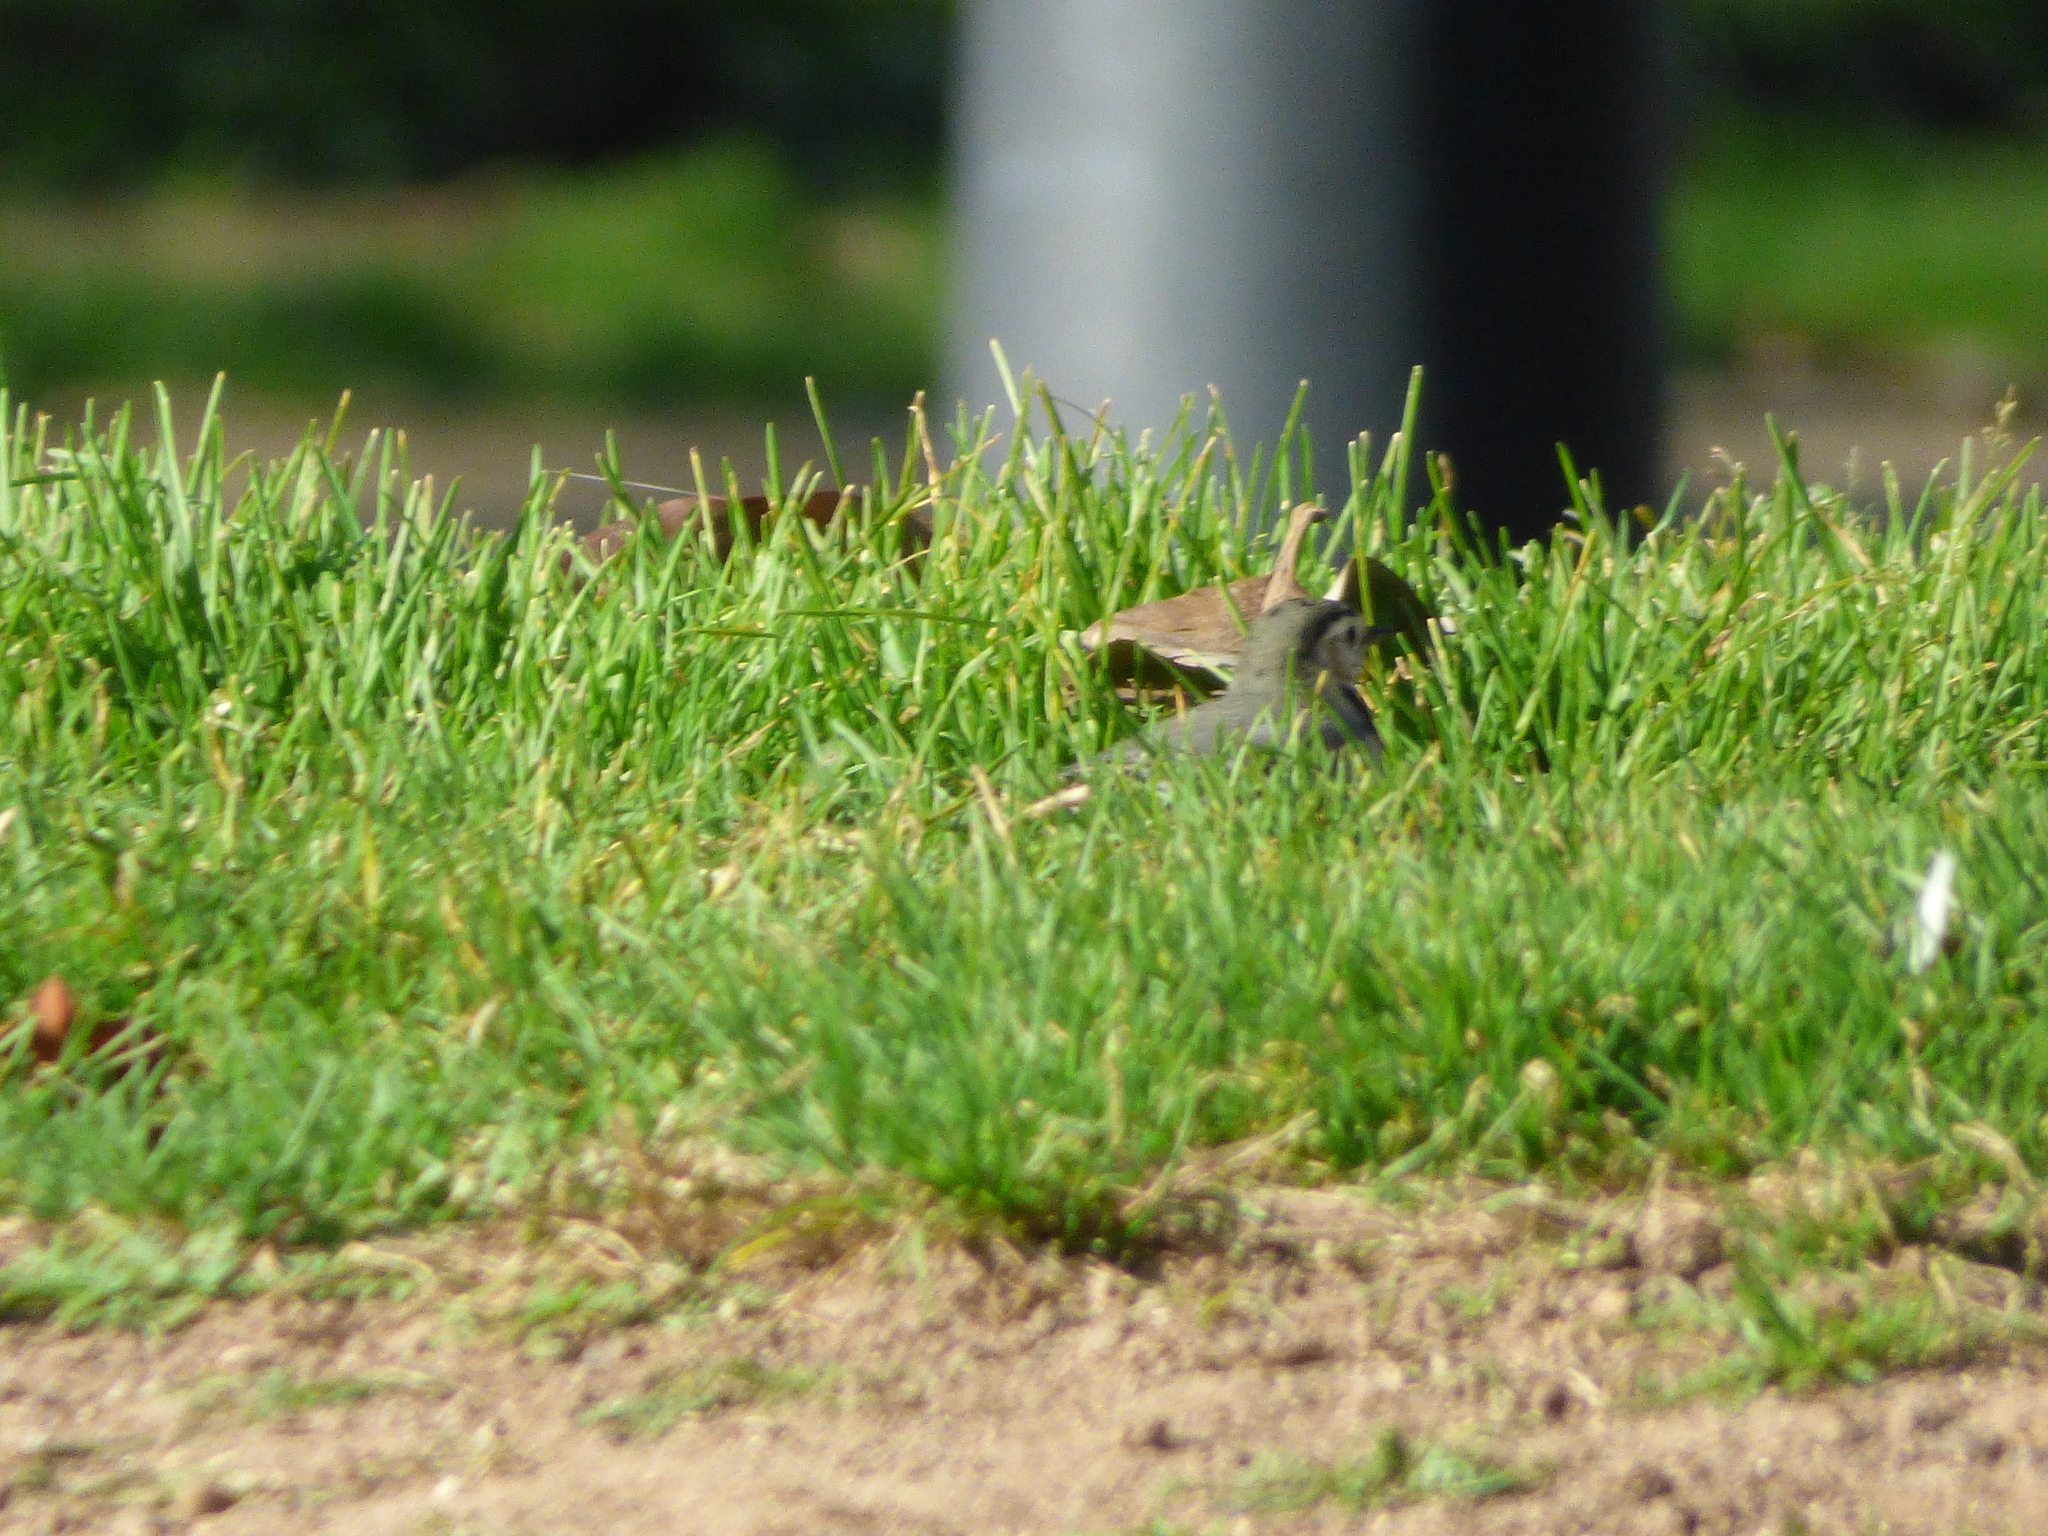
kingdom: Animalia
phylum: Chordata
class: Aves
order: Passeriformes
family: Motacillidae
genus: Motacilla
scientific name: Motacilla alba
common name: White wagtail
